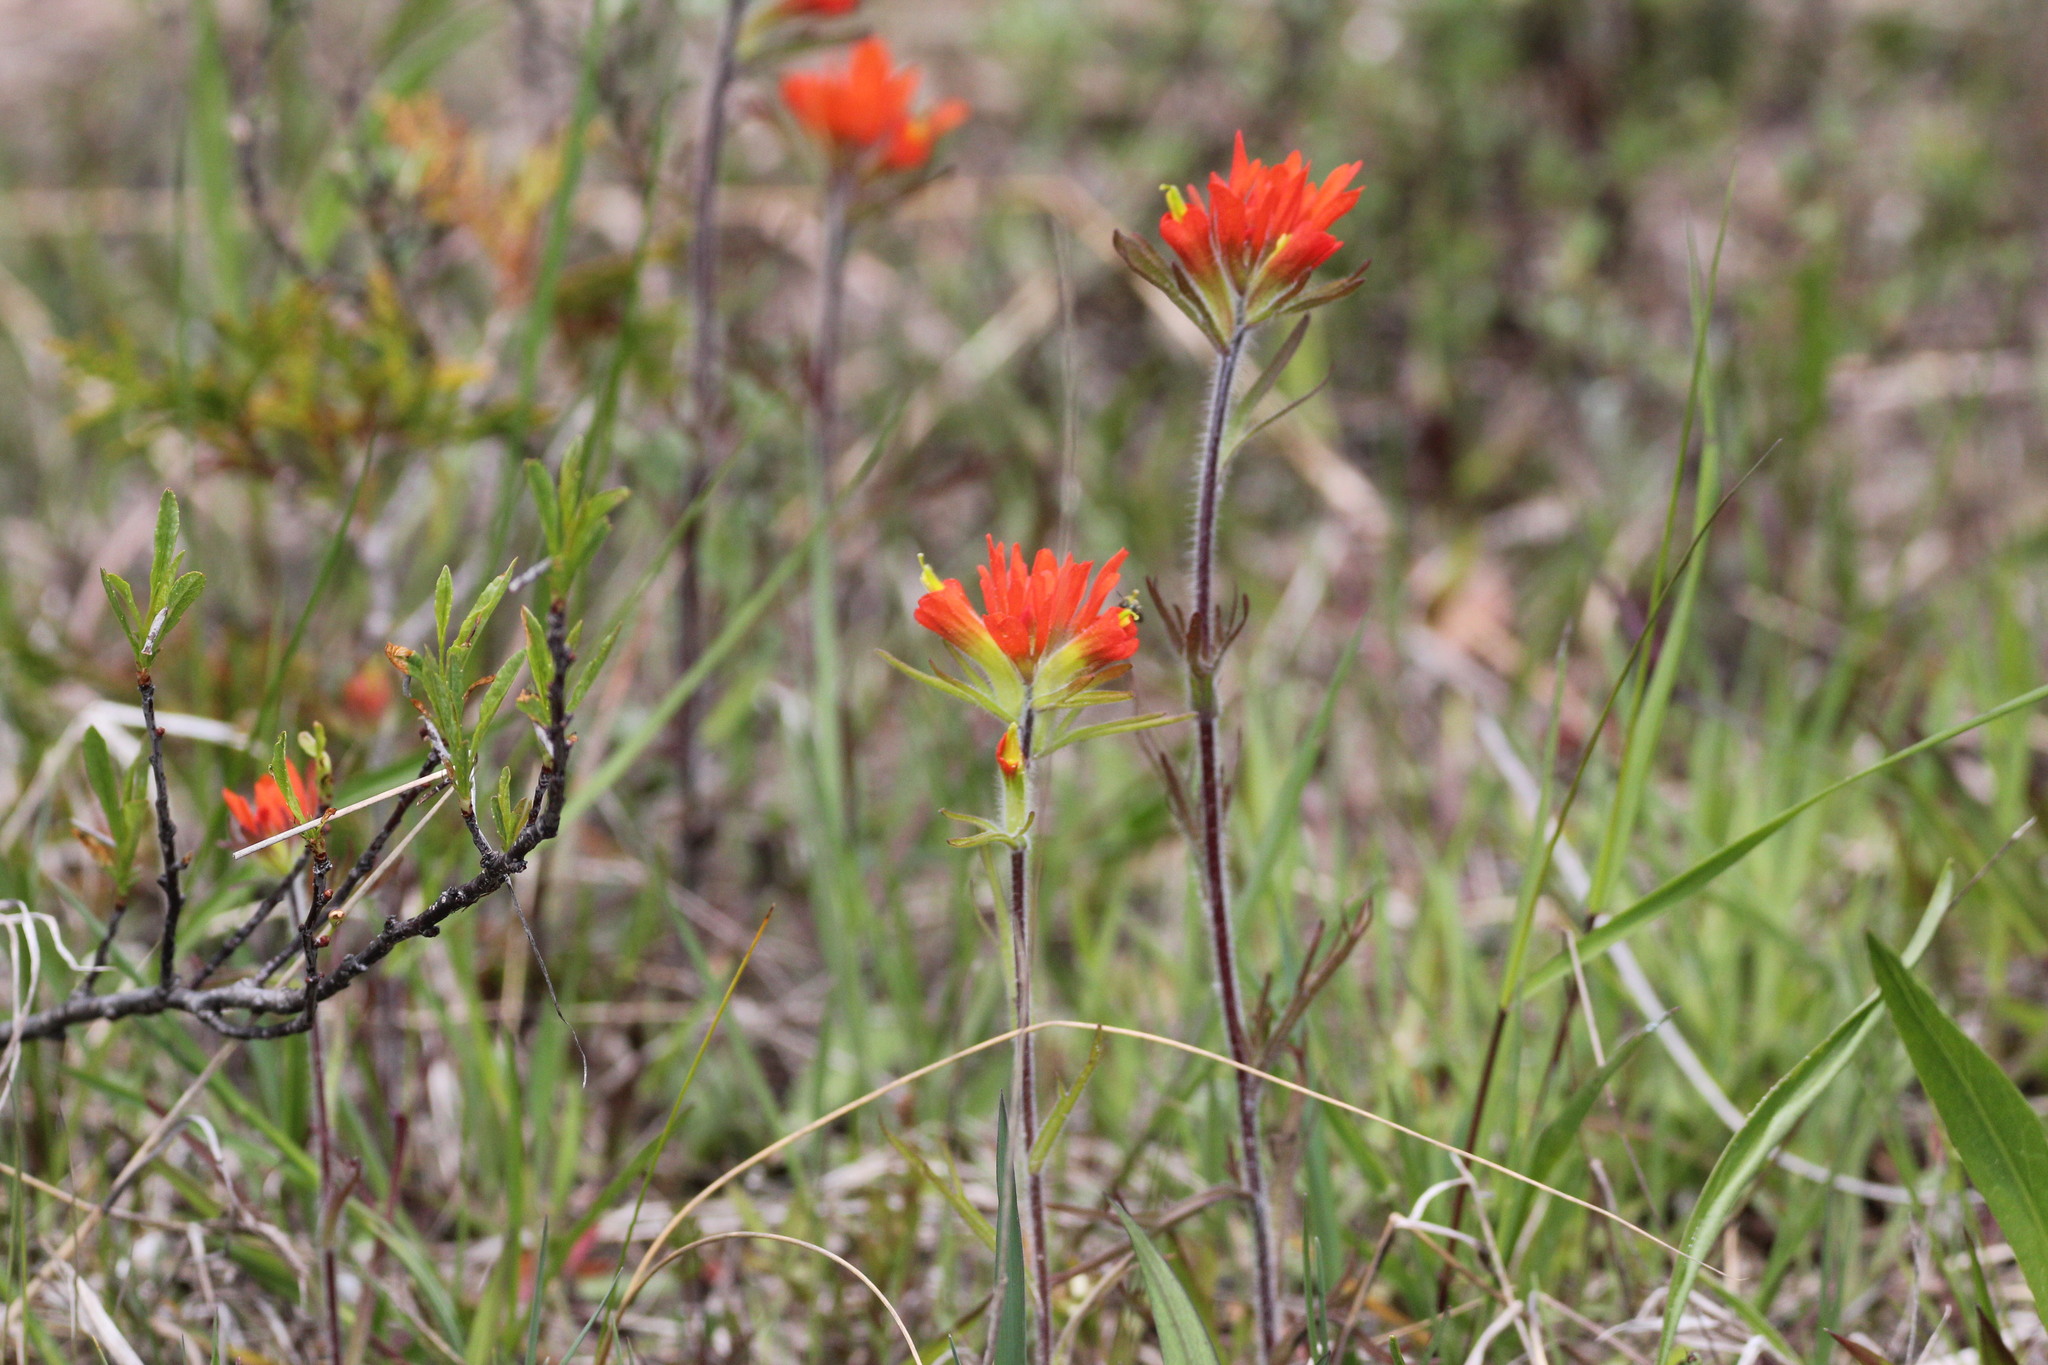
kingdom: Plantae
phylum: Tracheophyta
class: Magnoliopsida
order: Lamiales
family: Orobanchaceae
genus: Castilleja
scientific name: Castilleja coccinea
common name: Scarlet paintbrush
